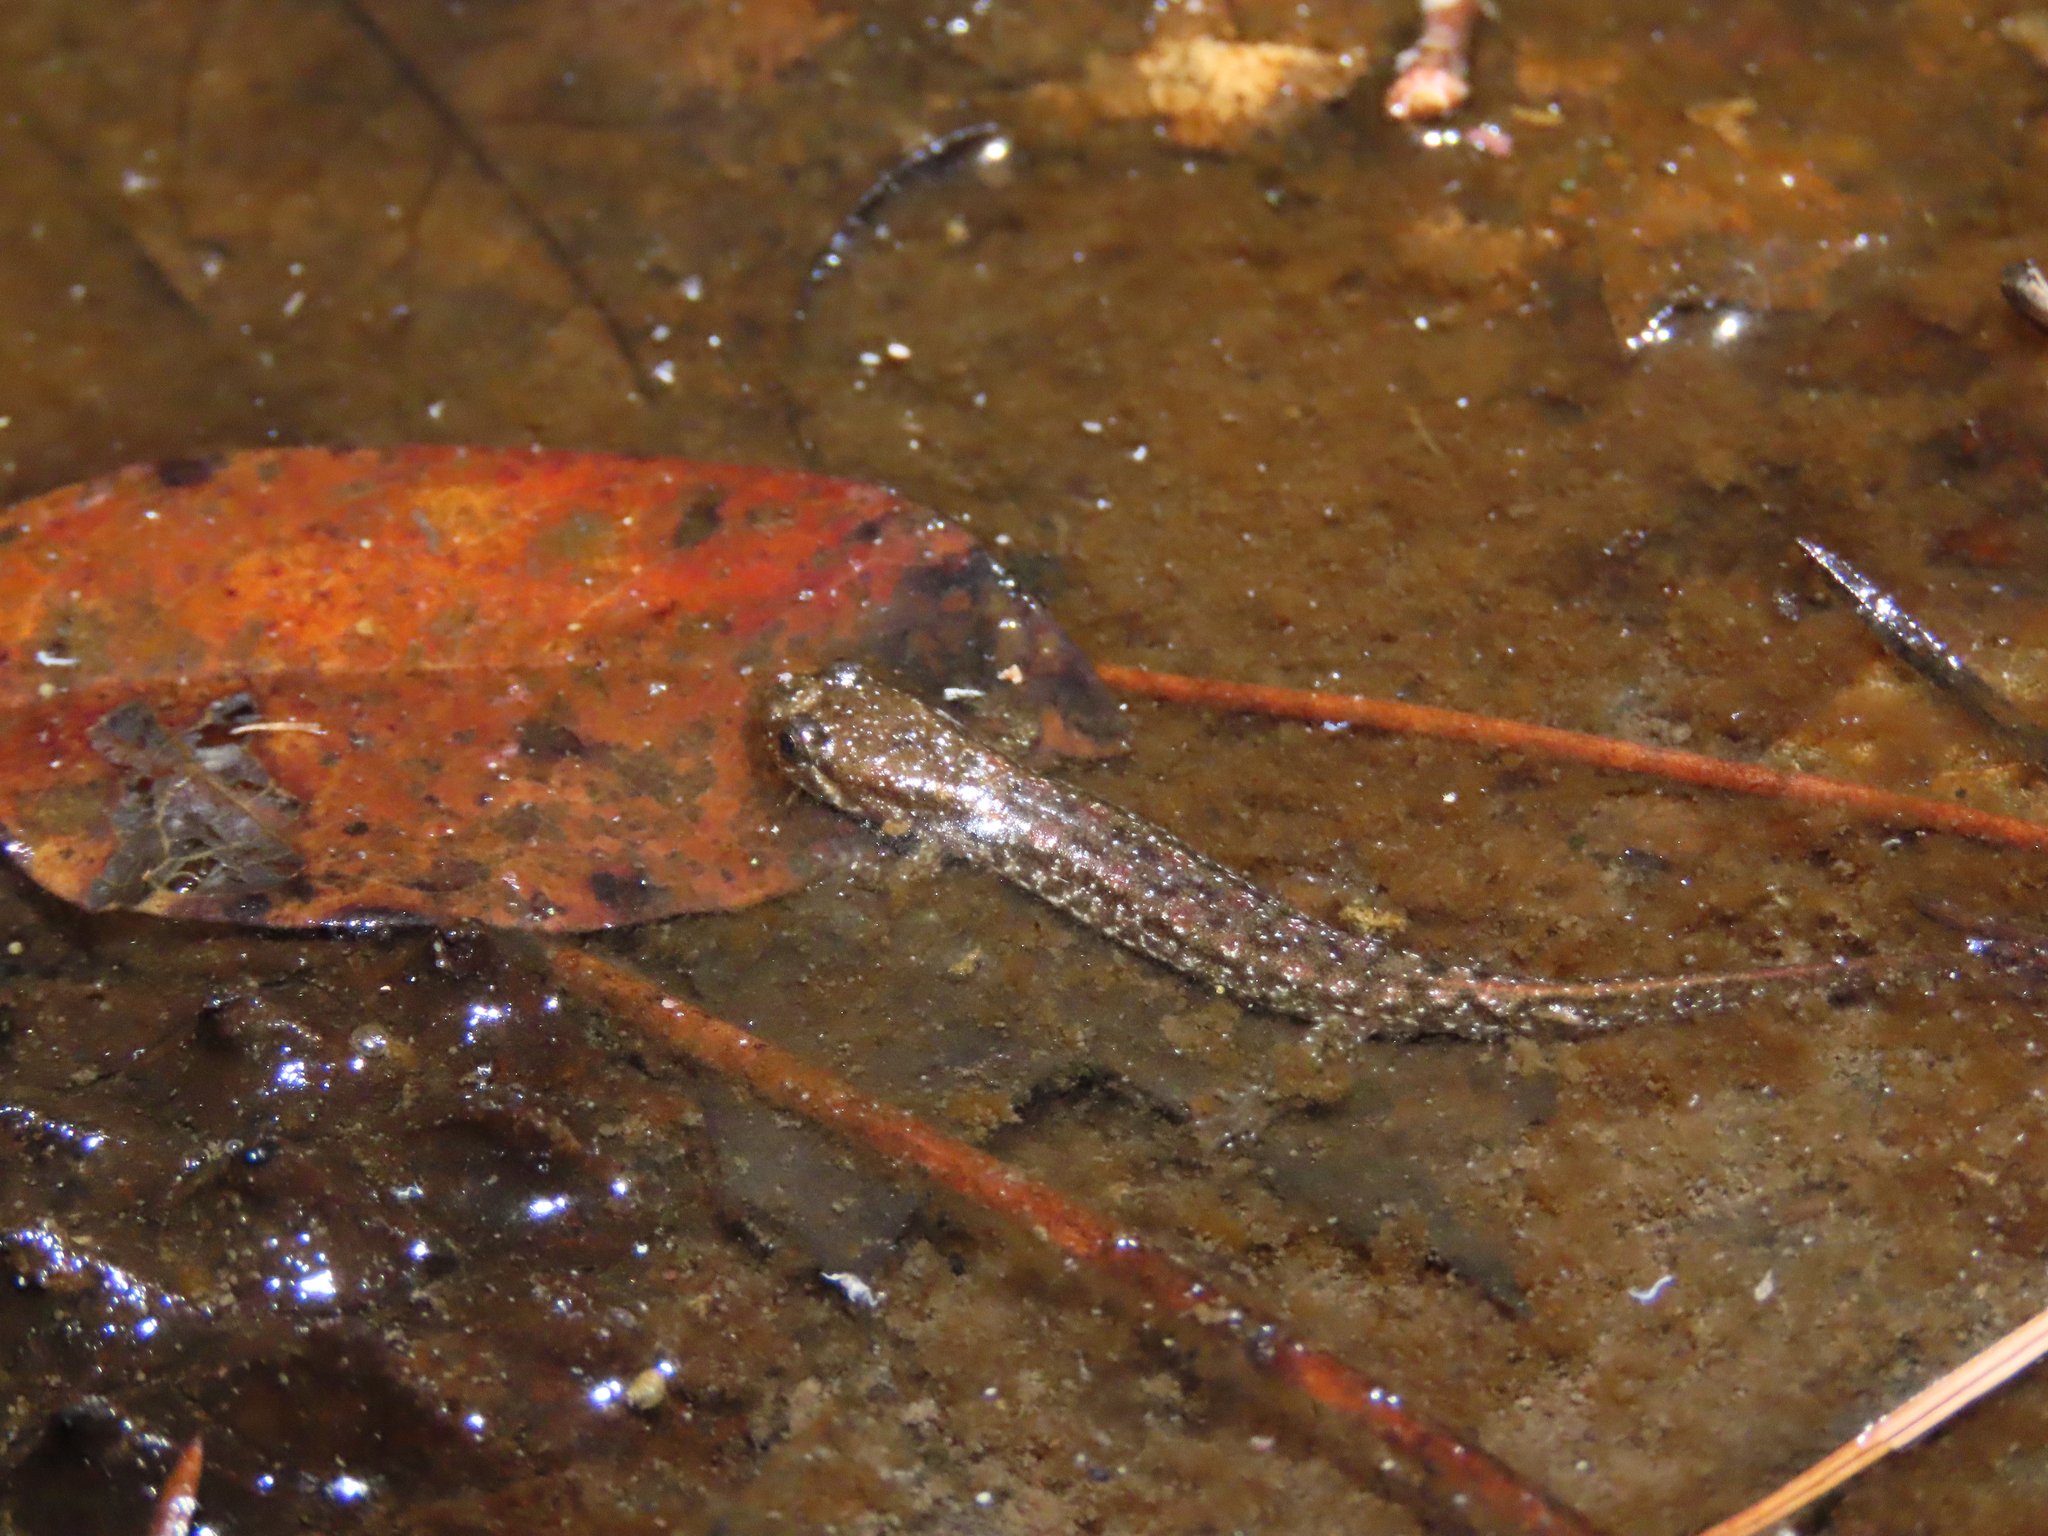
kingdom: Animalia
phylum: Chordata
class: Amphibia
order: Caudata
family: Plethodontidae
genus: Desmognathus
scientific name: Desmognathus fuscus
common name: Northern dusky salamander
